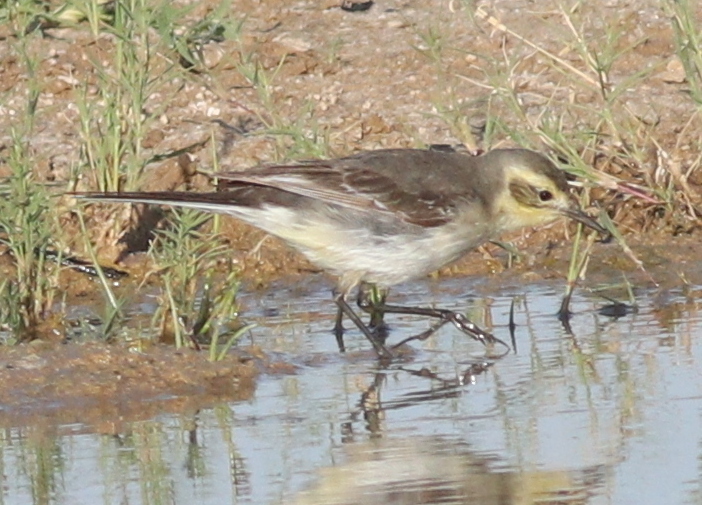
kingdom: Animalia
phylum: Chordata
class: Aves
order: Passeriformes
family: Motacillidae
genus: Motacilla
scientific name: Motacilla citreola
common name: Citrine wagtail
